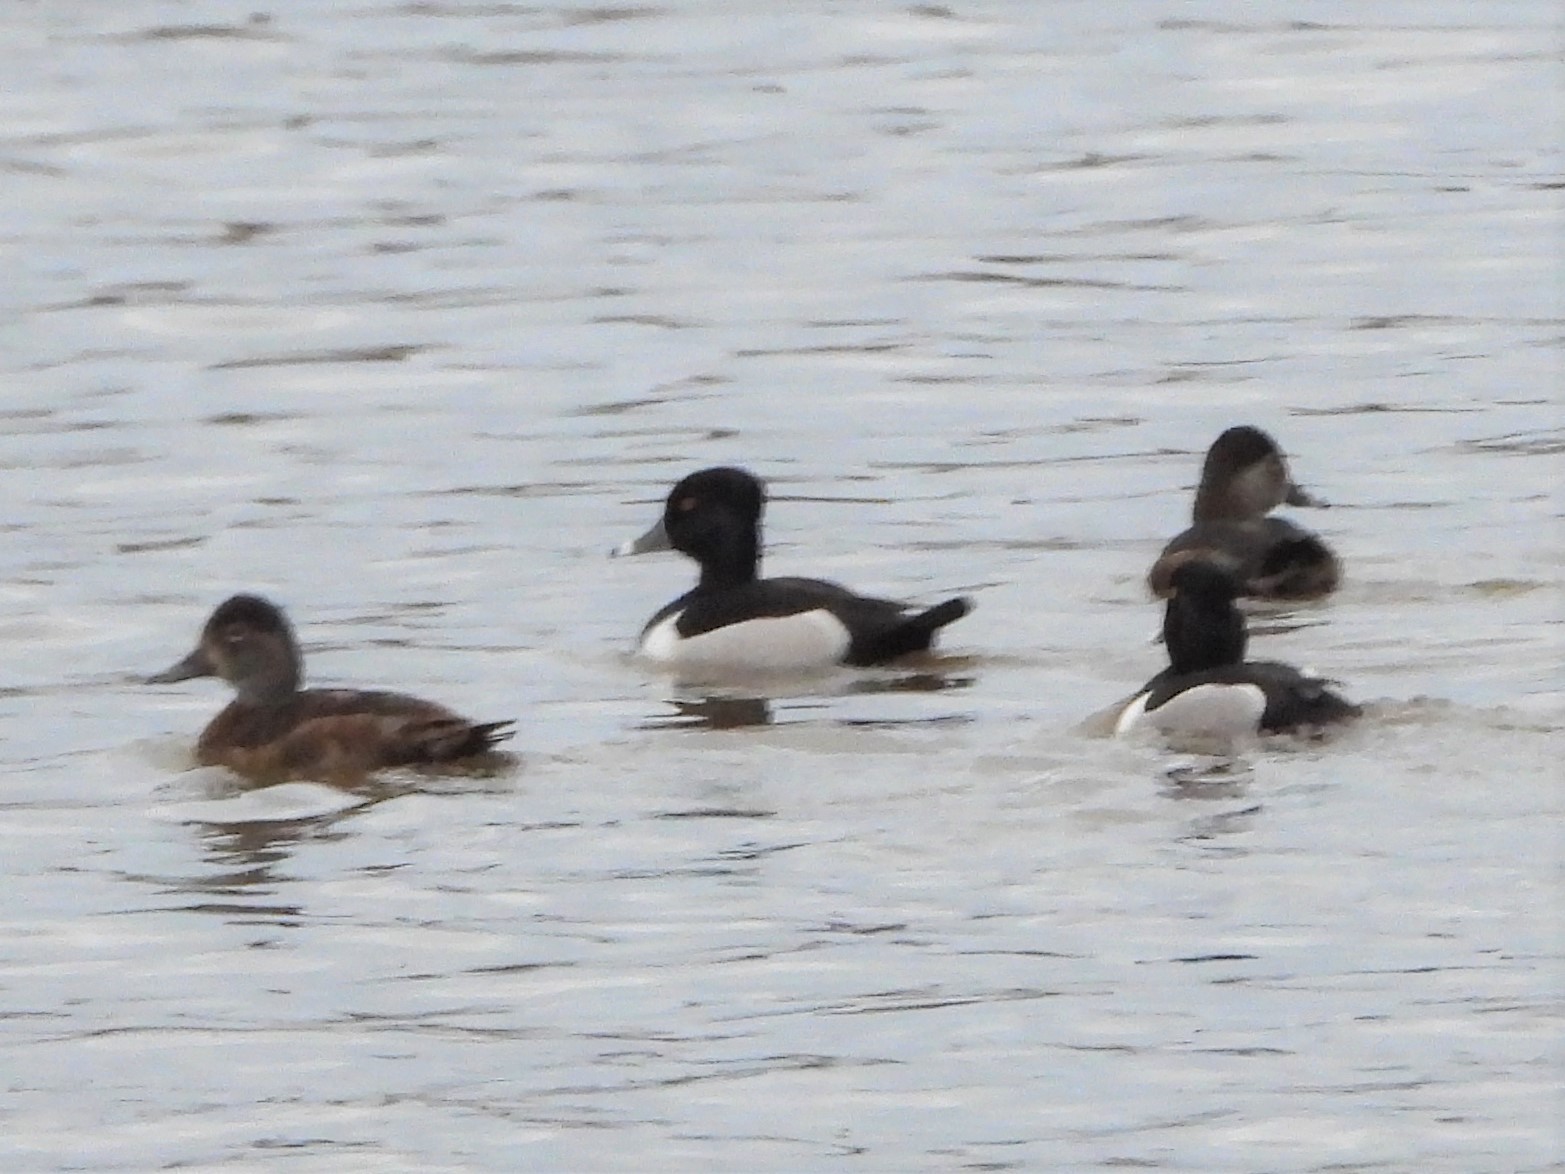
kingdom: Animalia
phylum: Chordata
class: Aves
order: Anseriformes
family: Anatidae
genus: Aythya
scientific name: Aythya collaris
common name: Ring-necked duck
